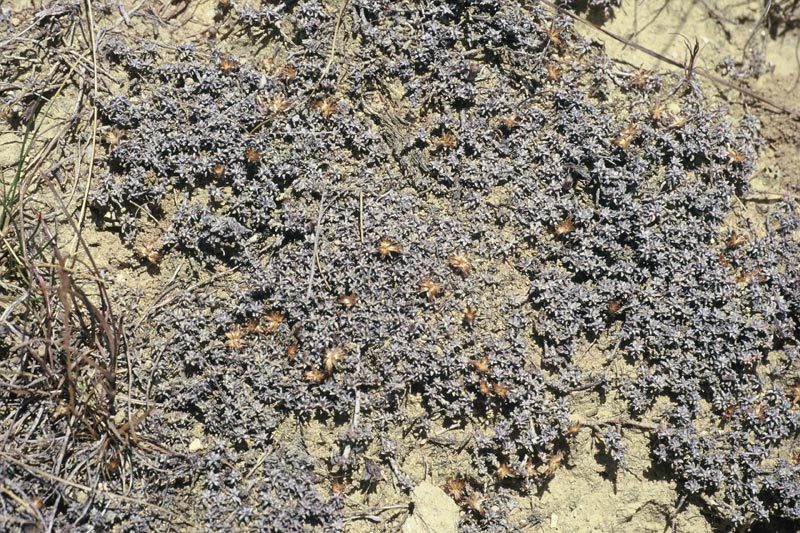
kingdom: Plantae
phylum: Tracheophyta
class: Magnoliopsida
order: Asterales
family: Asteraceae
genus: Raoulia
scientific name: Raoulia beauverdii
